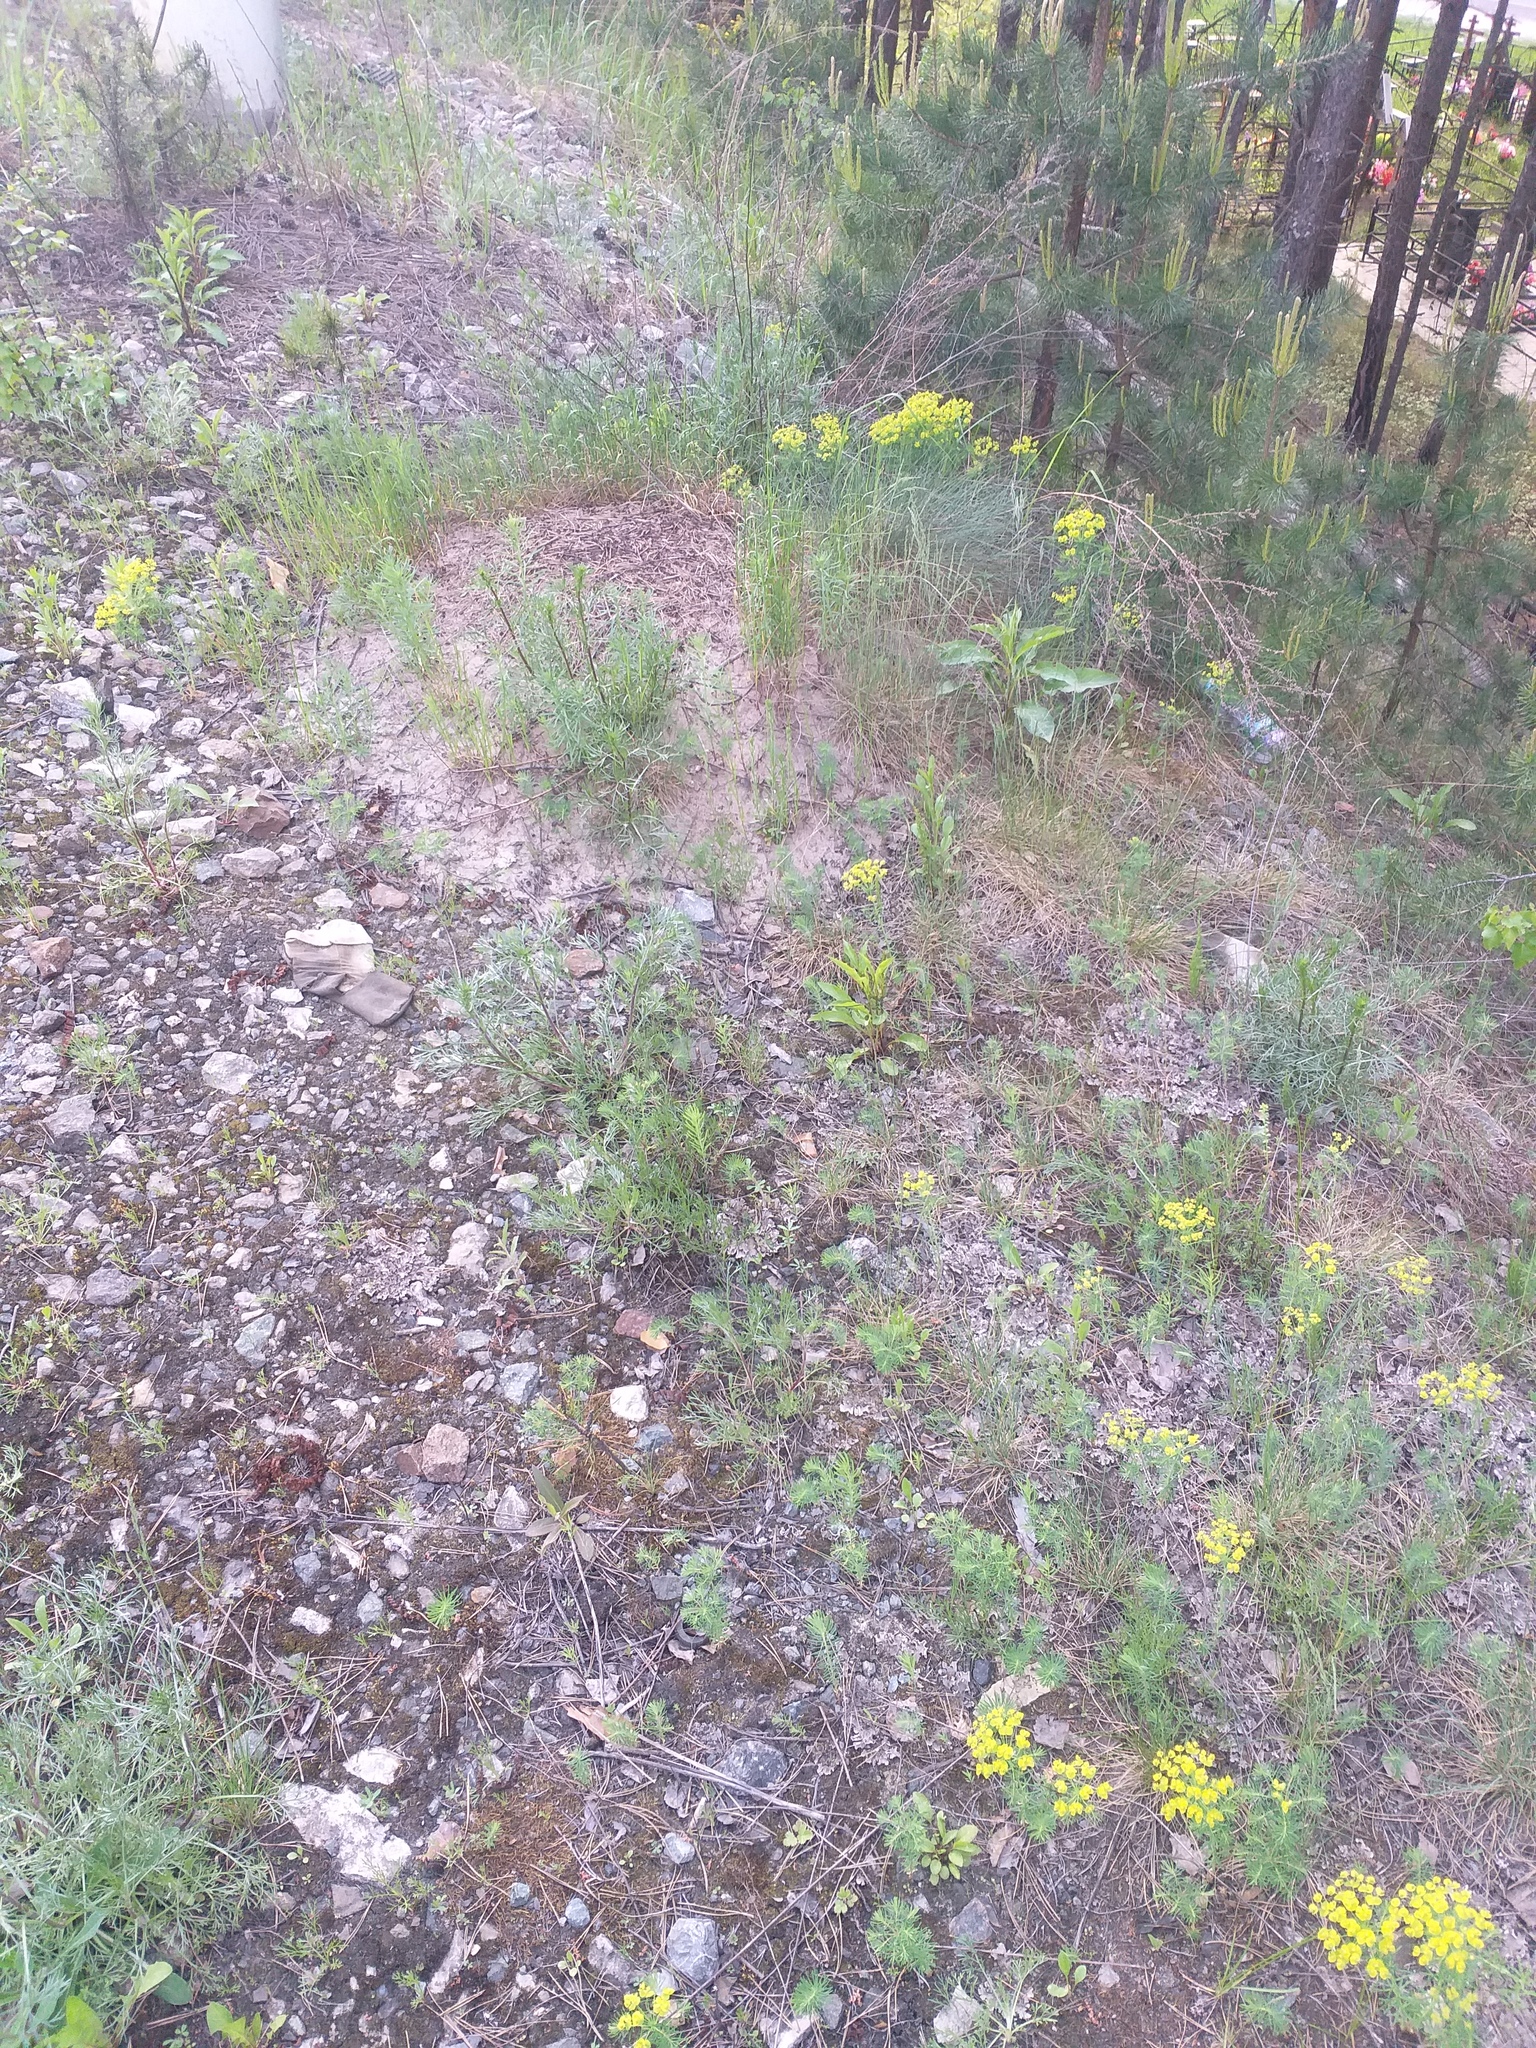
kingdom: Plantae
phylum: Tracheophyta
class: Magnoliopsida
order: Malpighiales
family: Euphorbiaceae
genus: Euphorbia
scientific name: Euphorbia cyparissias
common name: Cypress spurge
